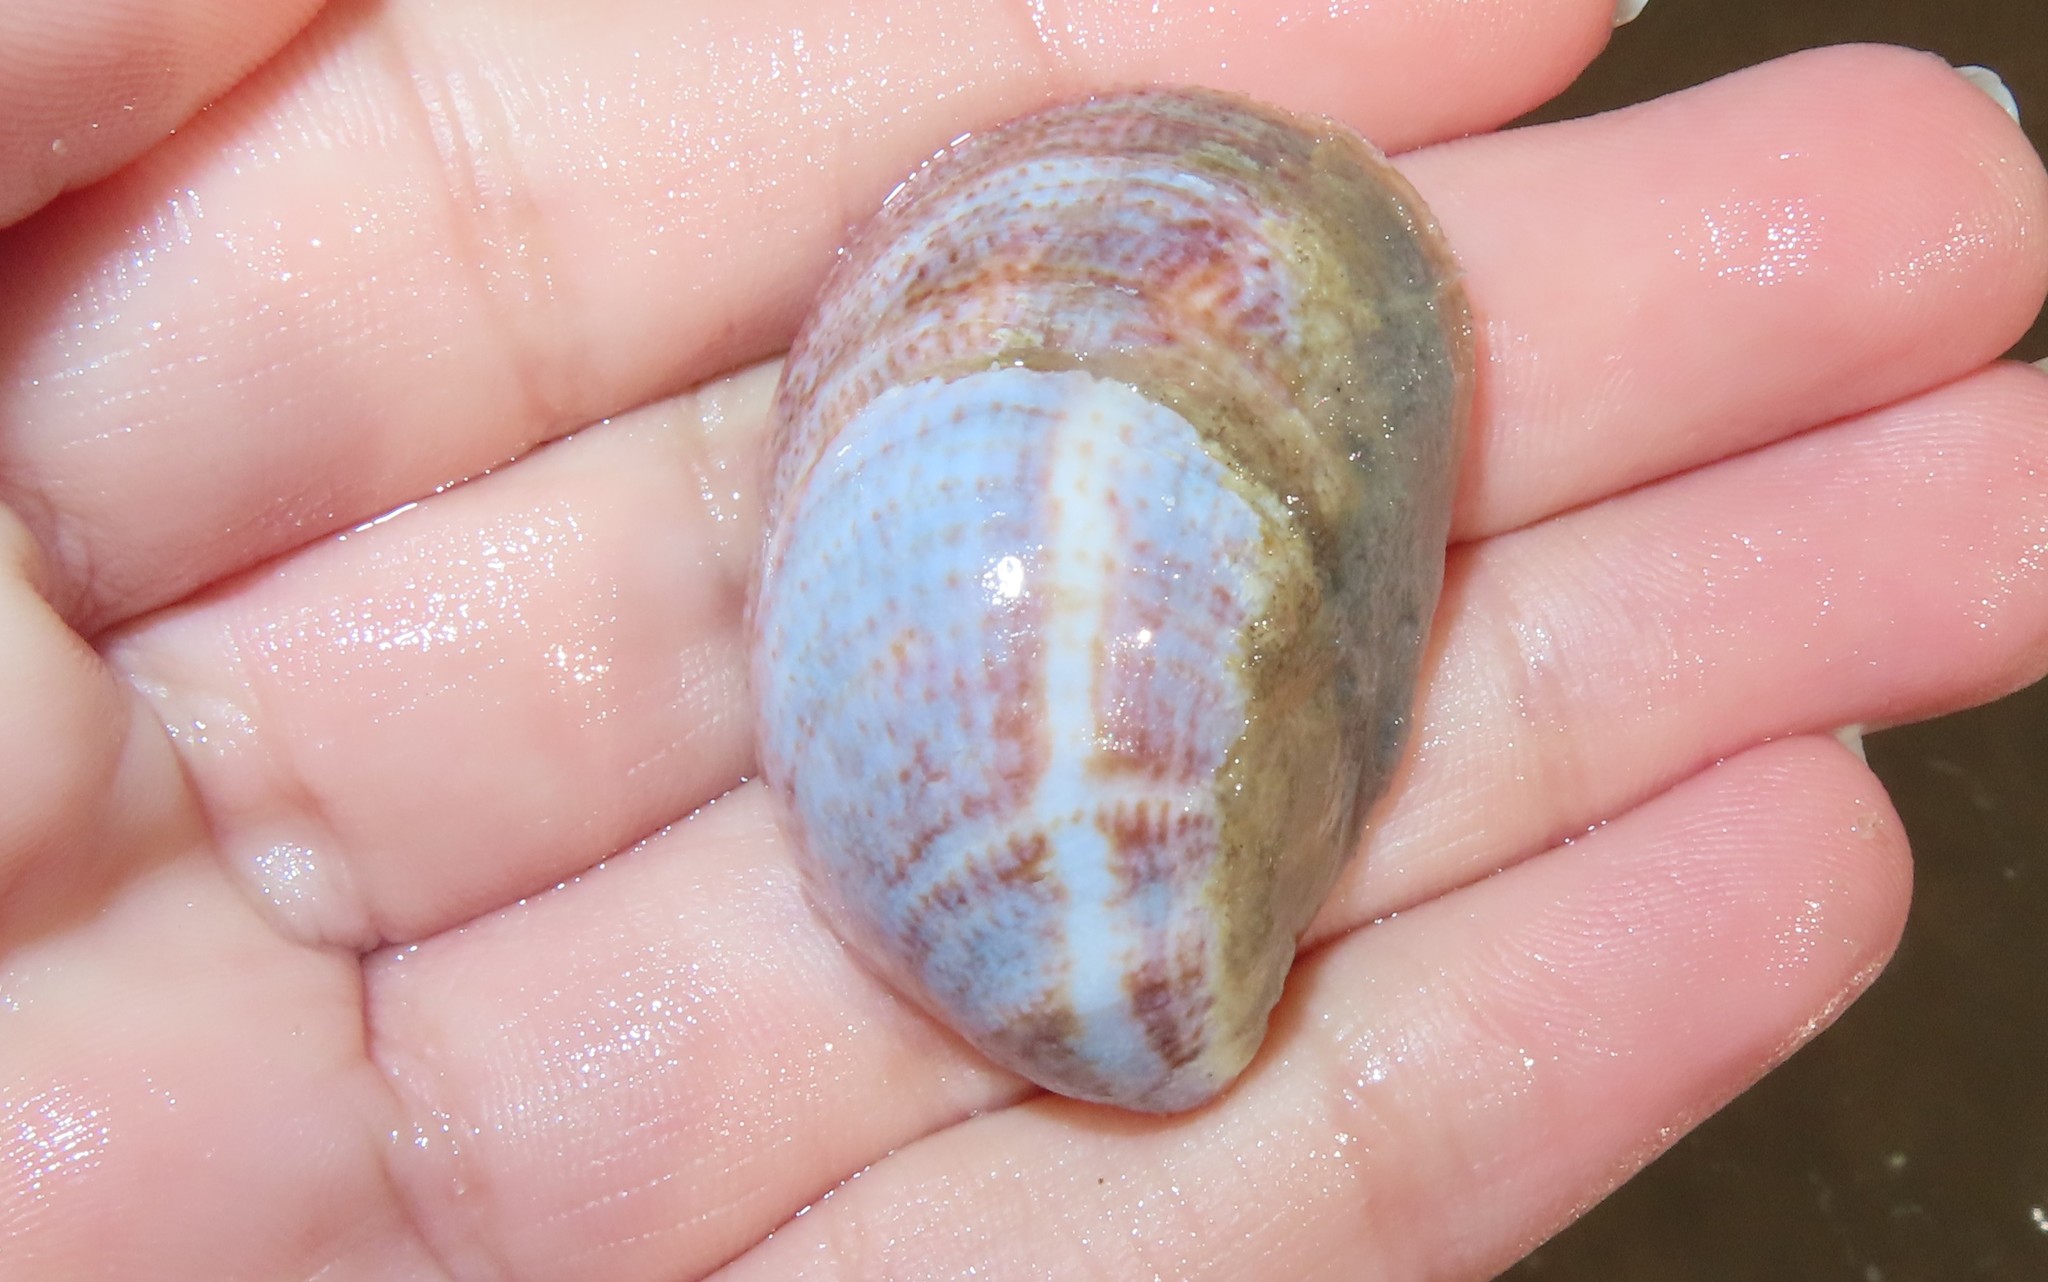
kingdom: Animalia
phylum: Mollusca
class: Gastropoda
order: Littorinimorpha
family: Calyptraeidae
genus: Crepidula
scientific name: Crepidula fornicata
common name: Slipper limpet
